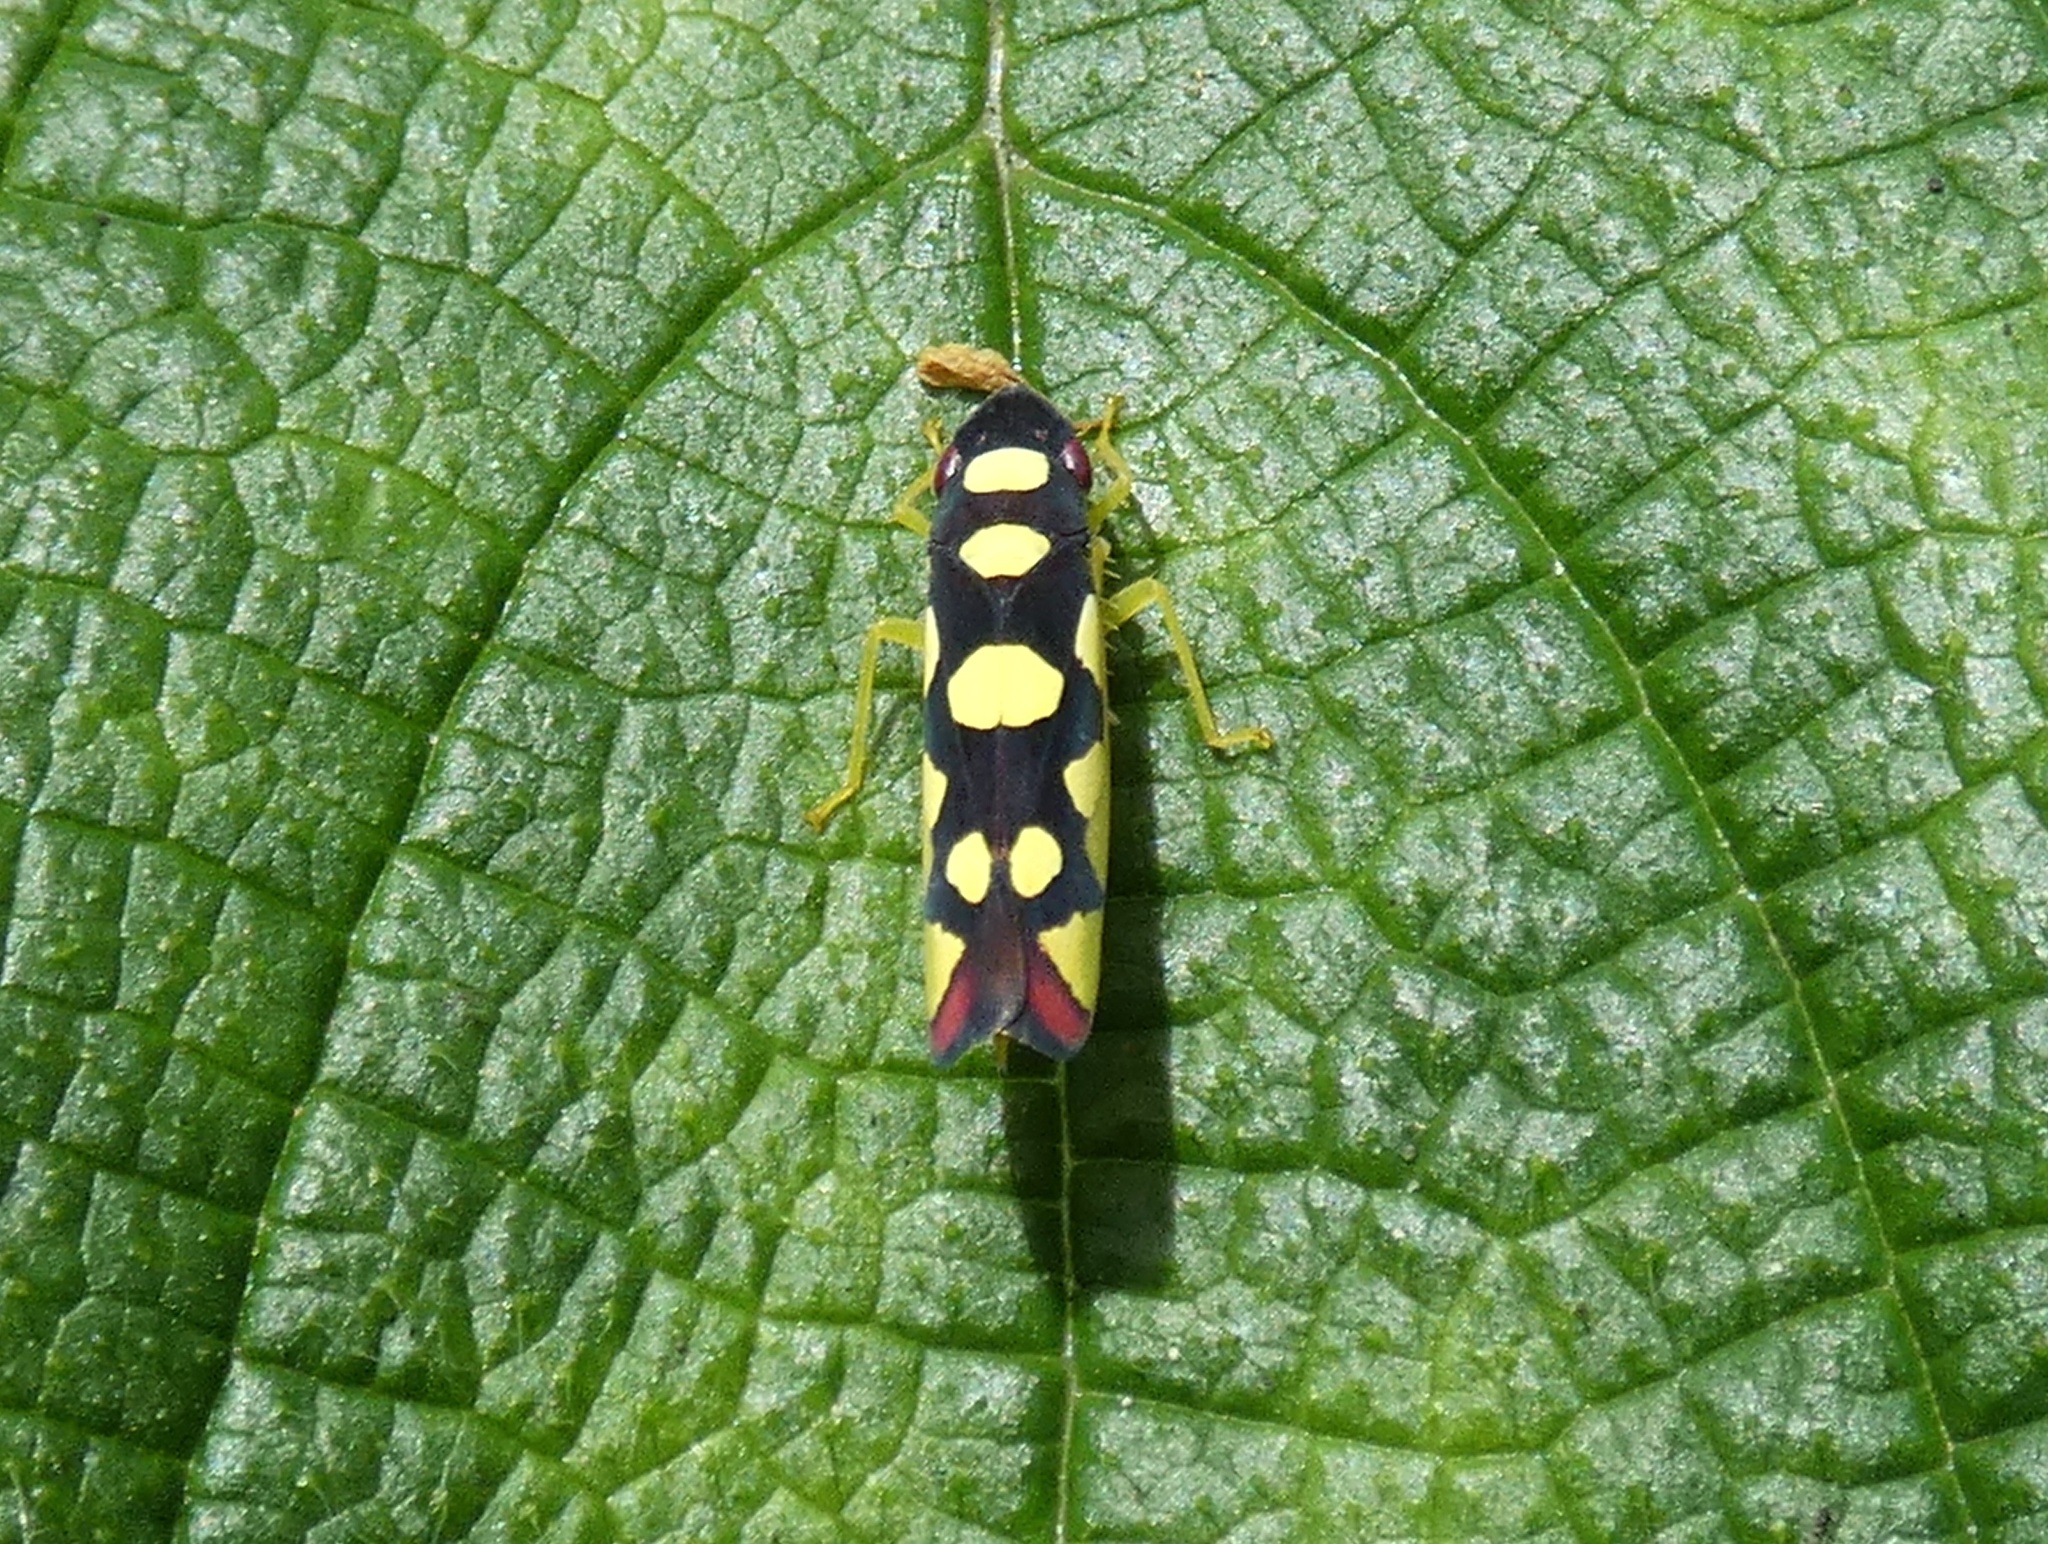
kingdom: Animalia
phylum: Arthropoda
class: Insecta
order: Hemiptera
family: Cicadellidae
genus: Baleja
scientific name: Baleja flavoguttata
